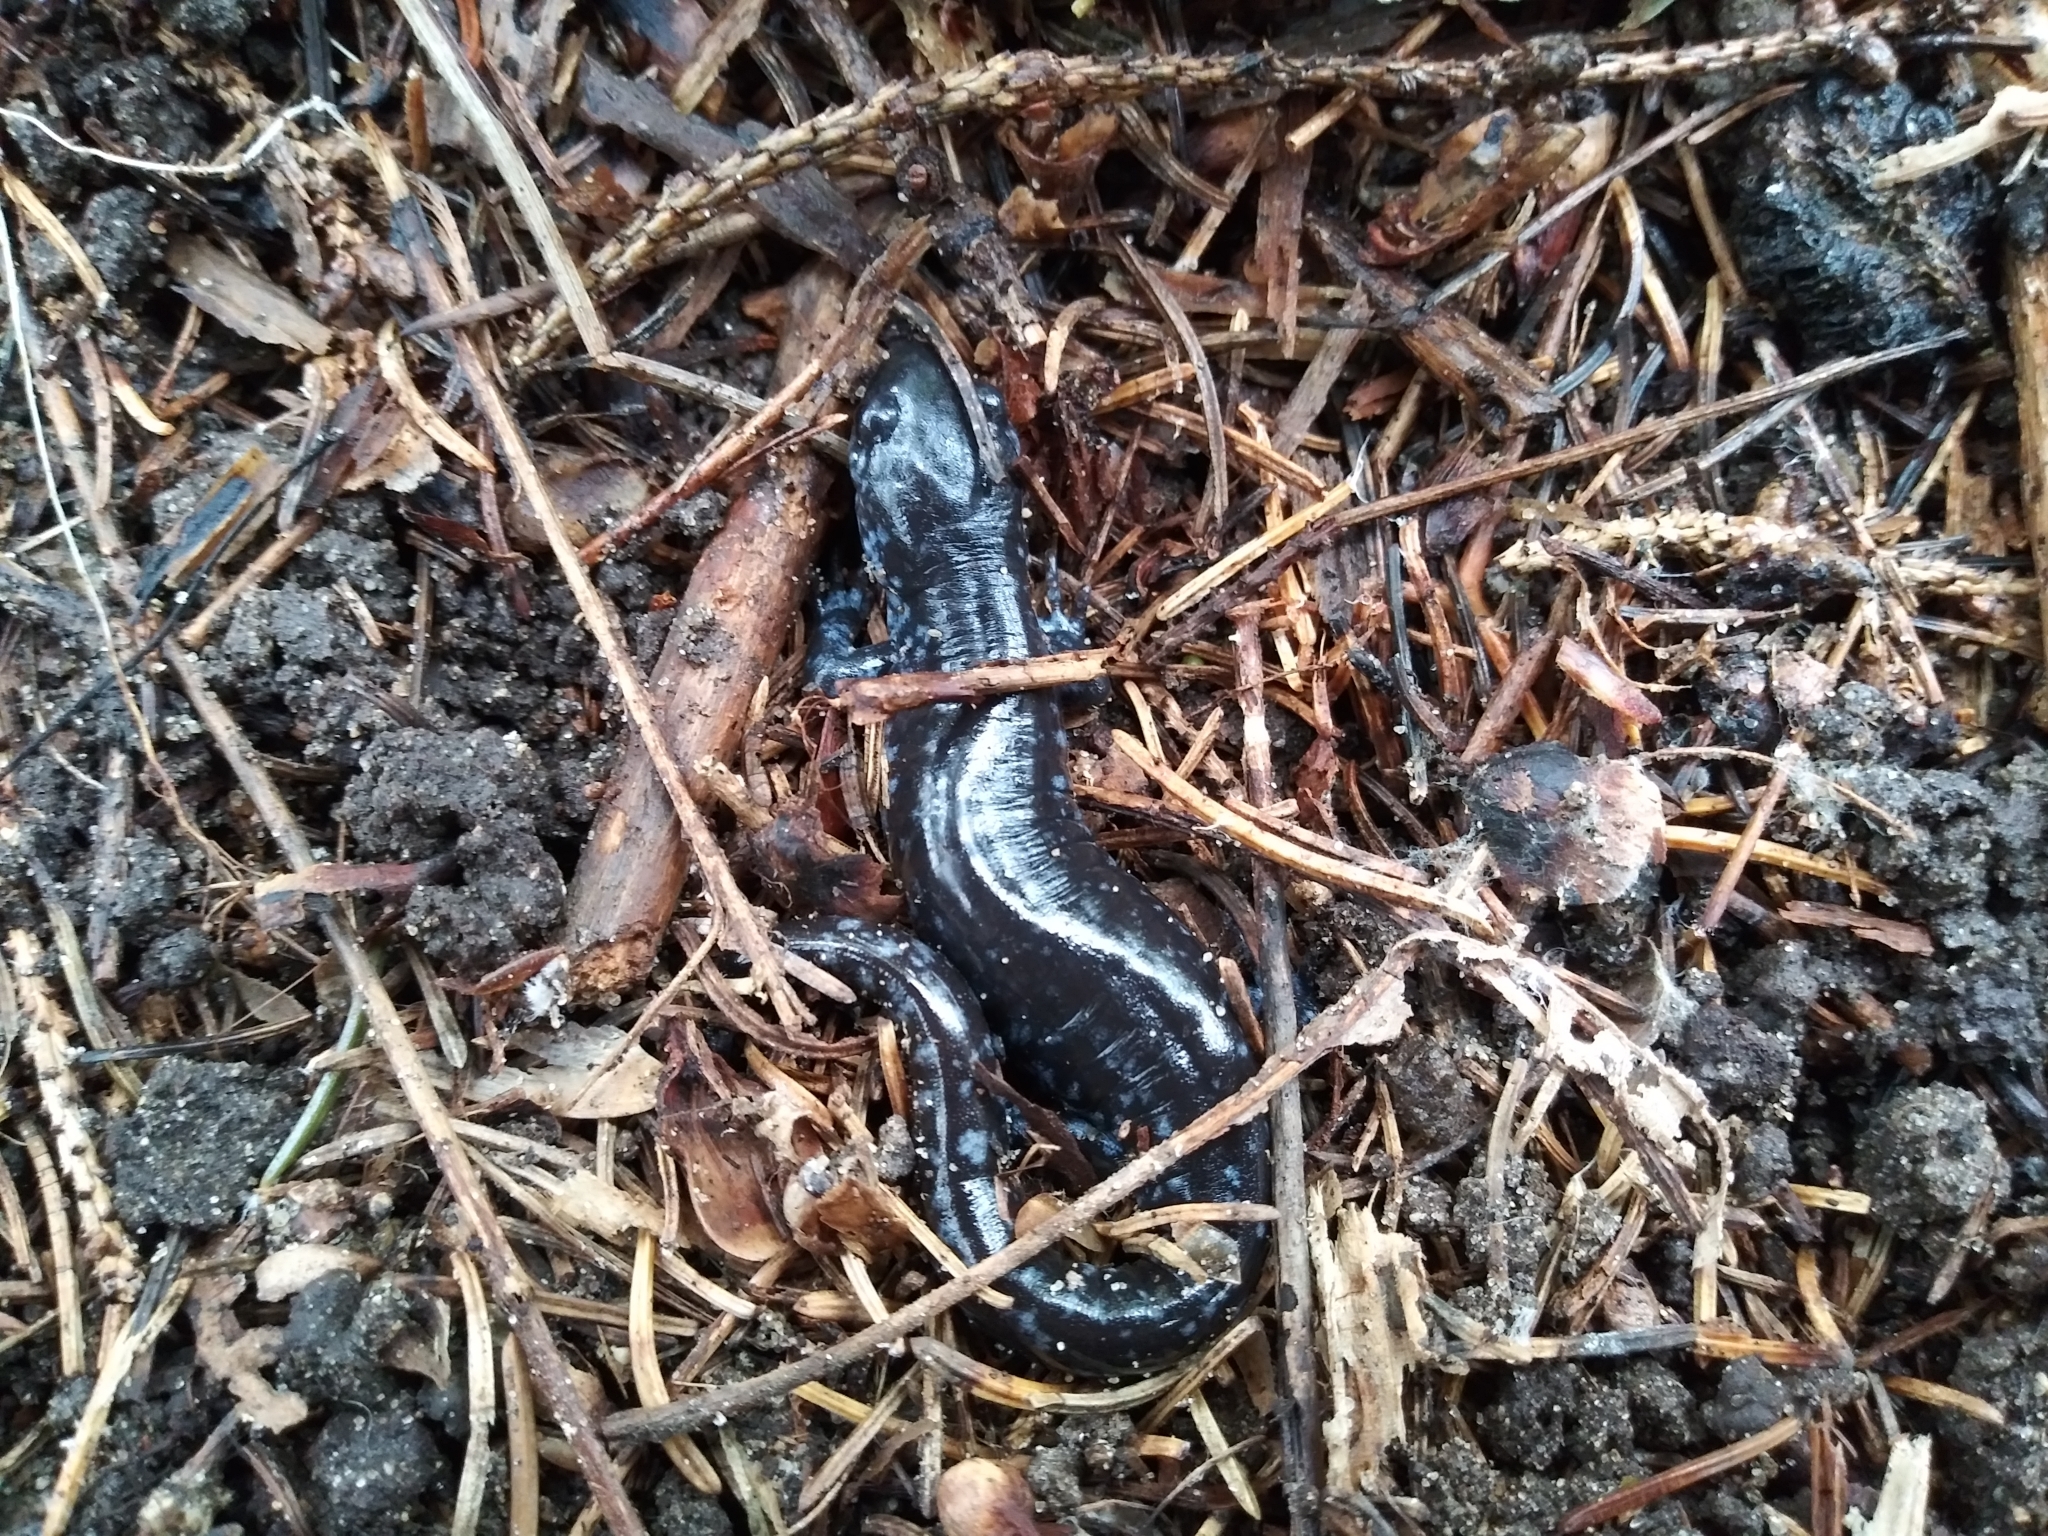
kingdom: Animalia
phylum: Chordata
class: Amphibia
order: Caudata
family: Ambystomatidae
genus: Ambystoma
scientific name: Ambystoma laterale
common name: Blue-spotted salamander
